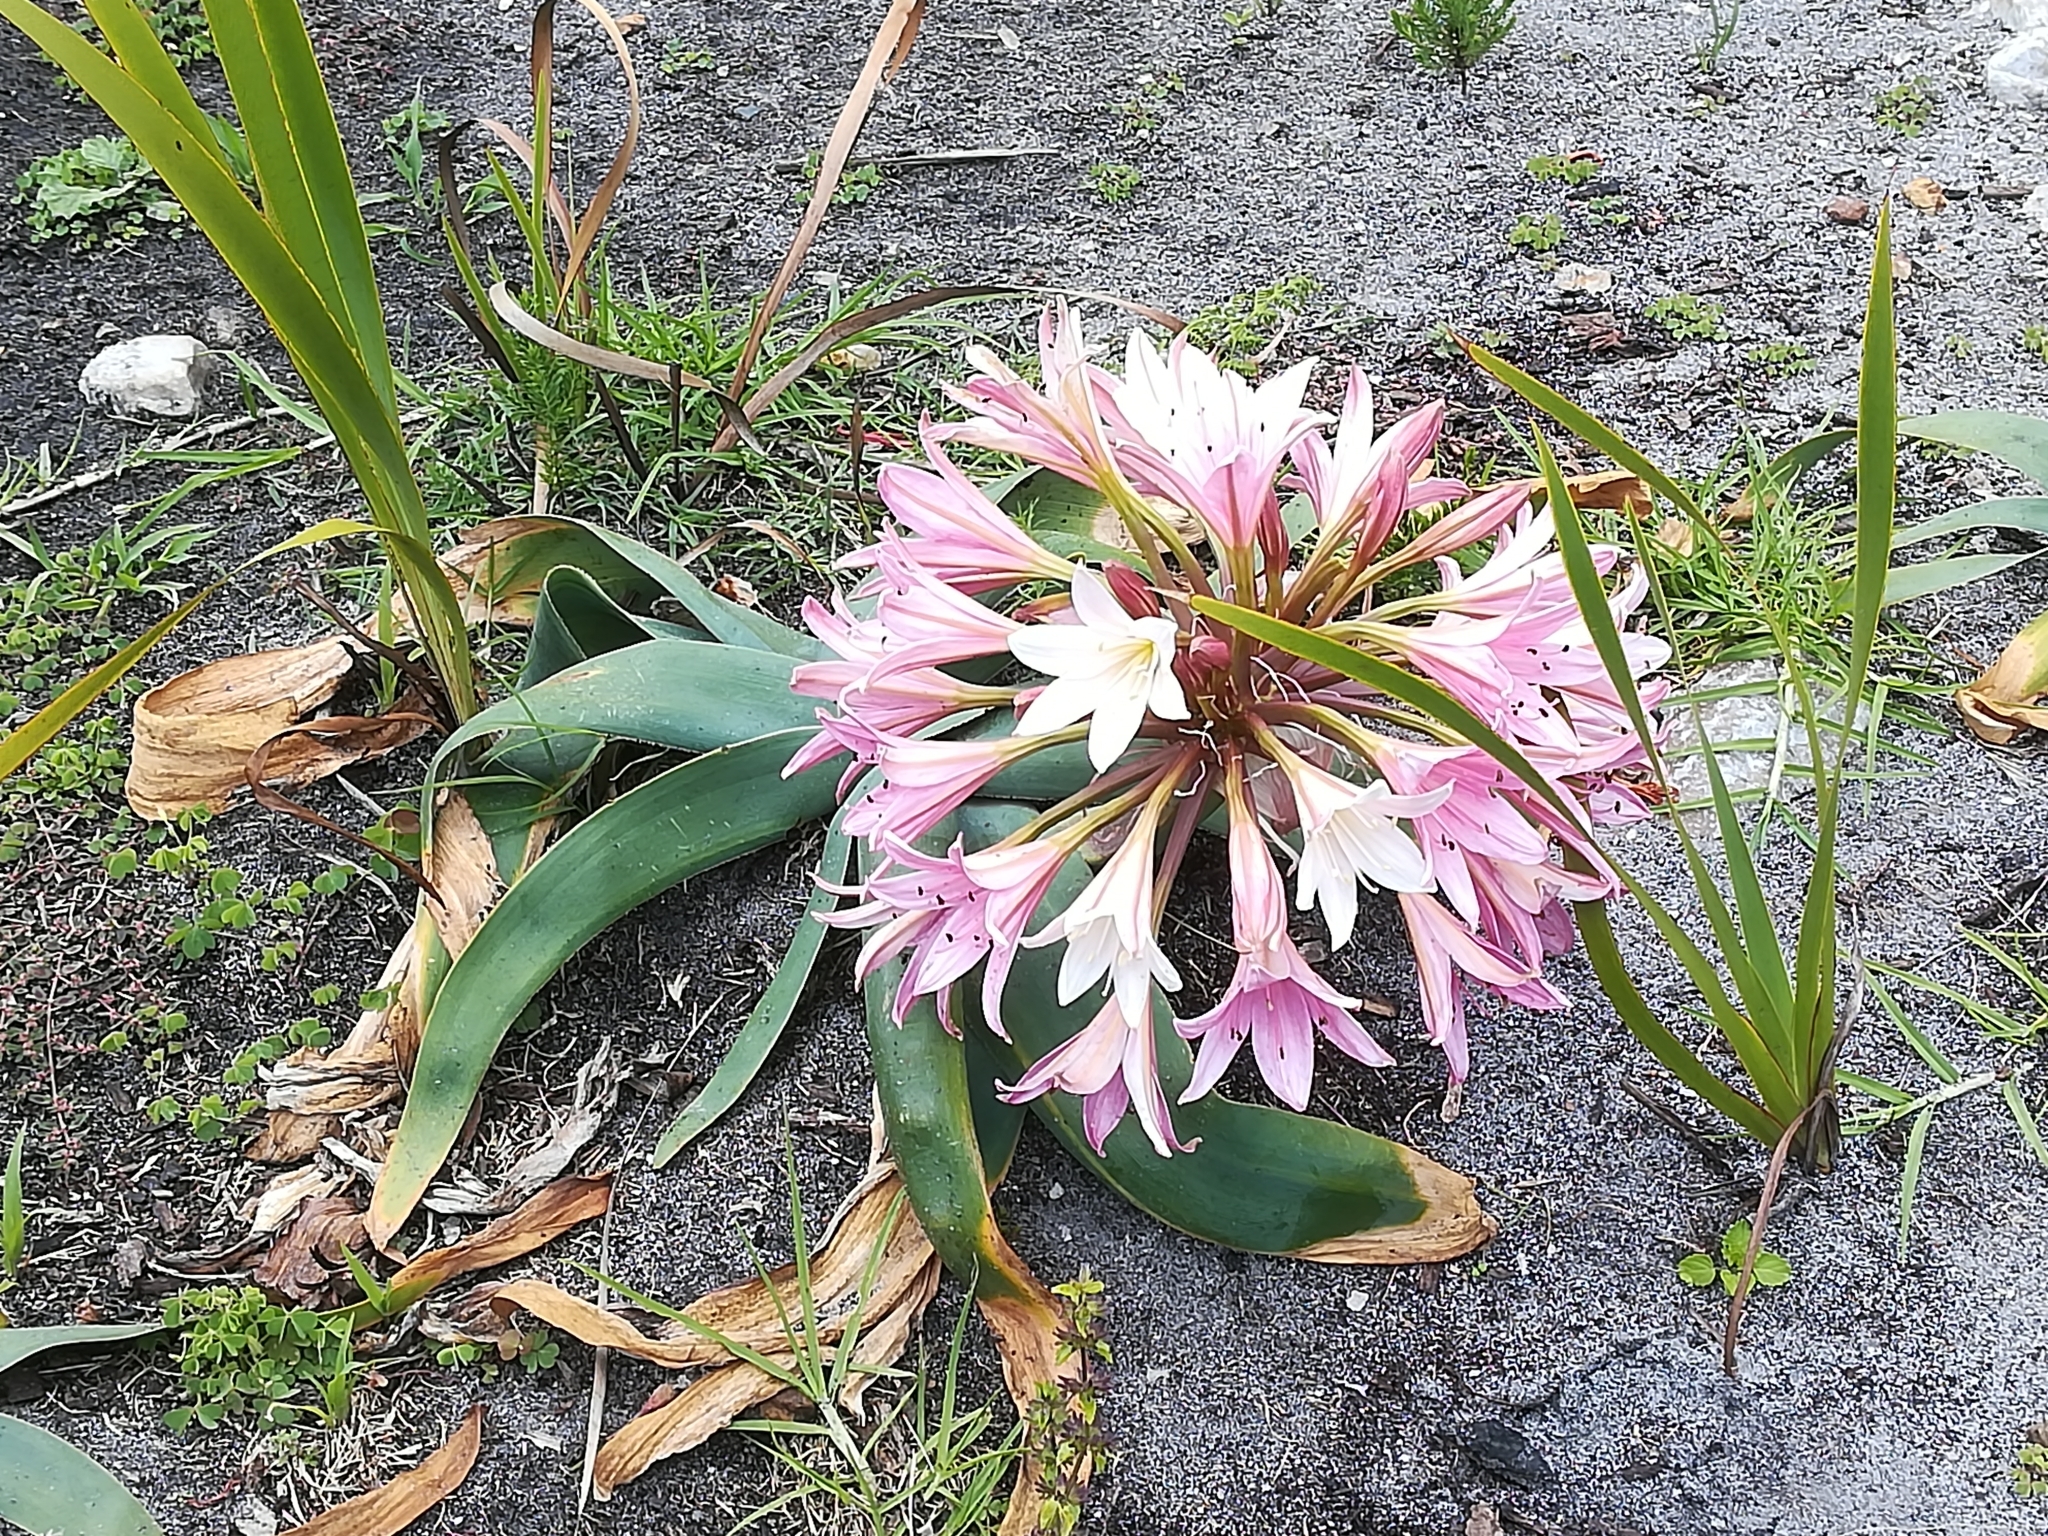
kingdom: Plantae
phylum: Tracheophyta
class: Liliopsida
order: Asparagales
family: Amaryllidaceae
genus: Ammocharis
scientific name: Ammocharis longifolia
